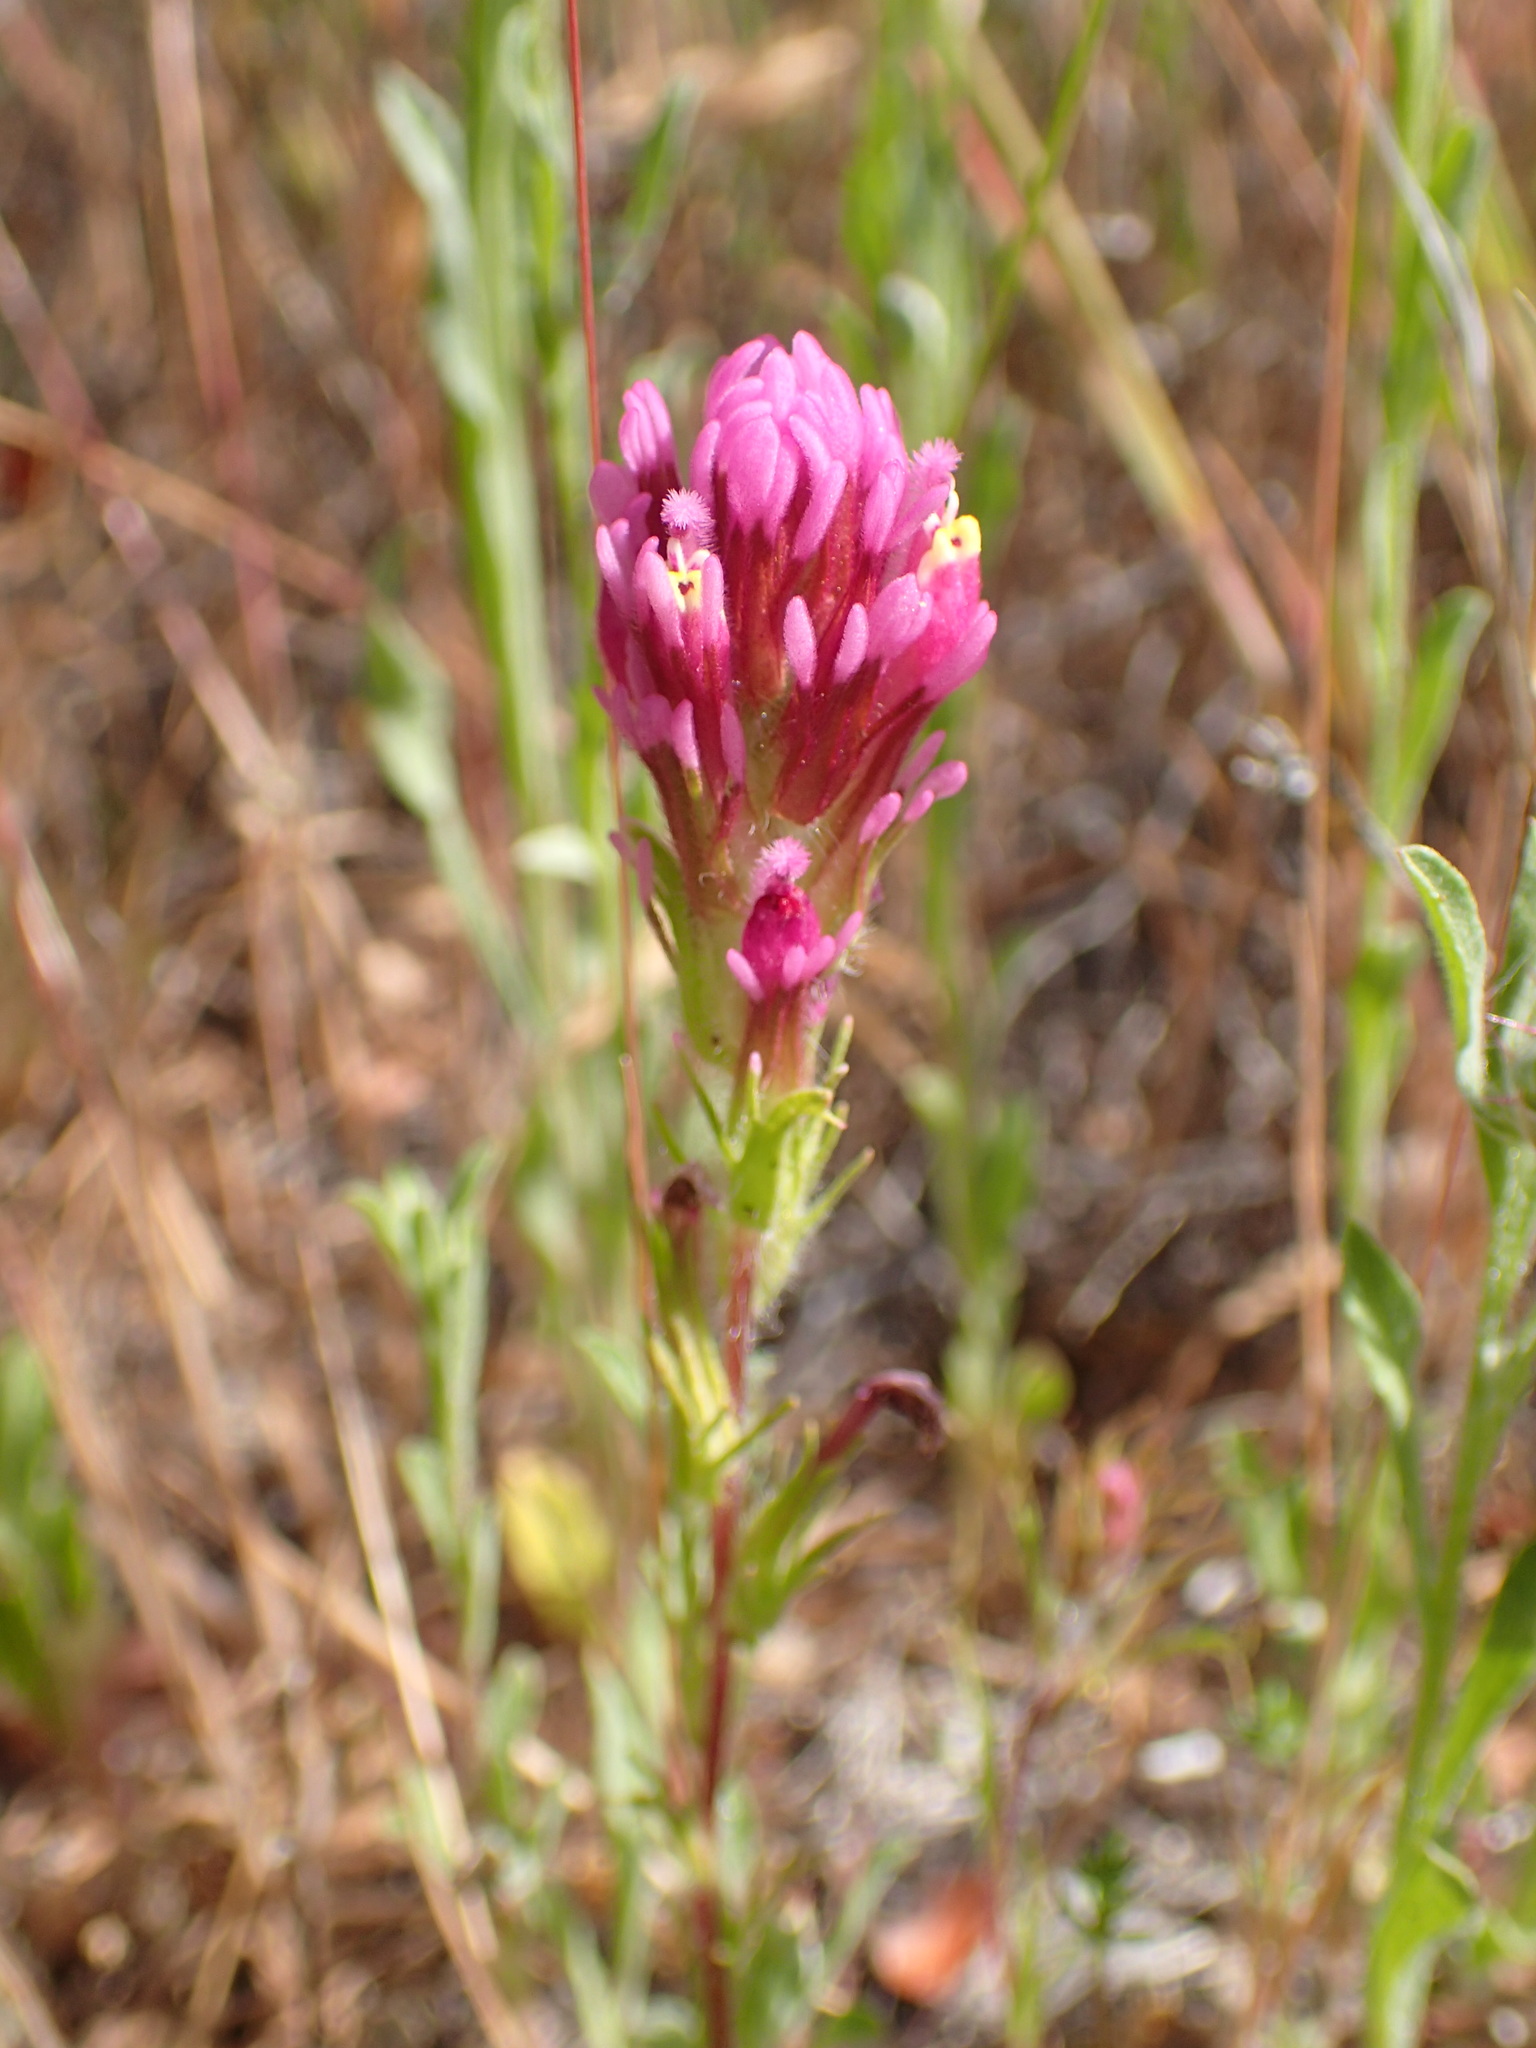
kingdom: Plantae
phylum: Tracheophyta
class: Magnoliopsida
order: Lamiales
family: Orobanchaceae
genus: Castilleja
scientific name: Castilleja exserta
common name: Purple owl-clover
